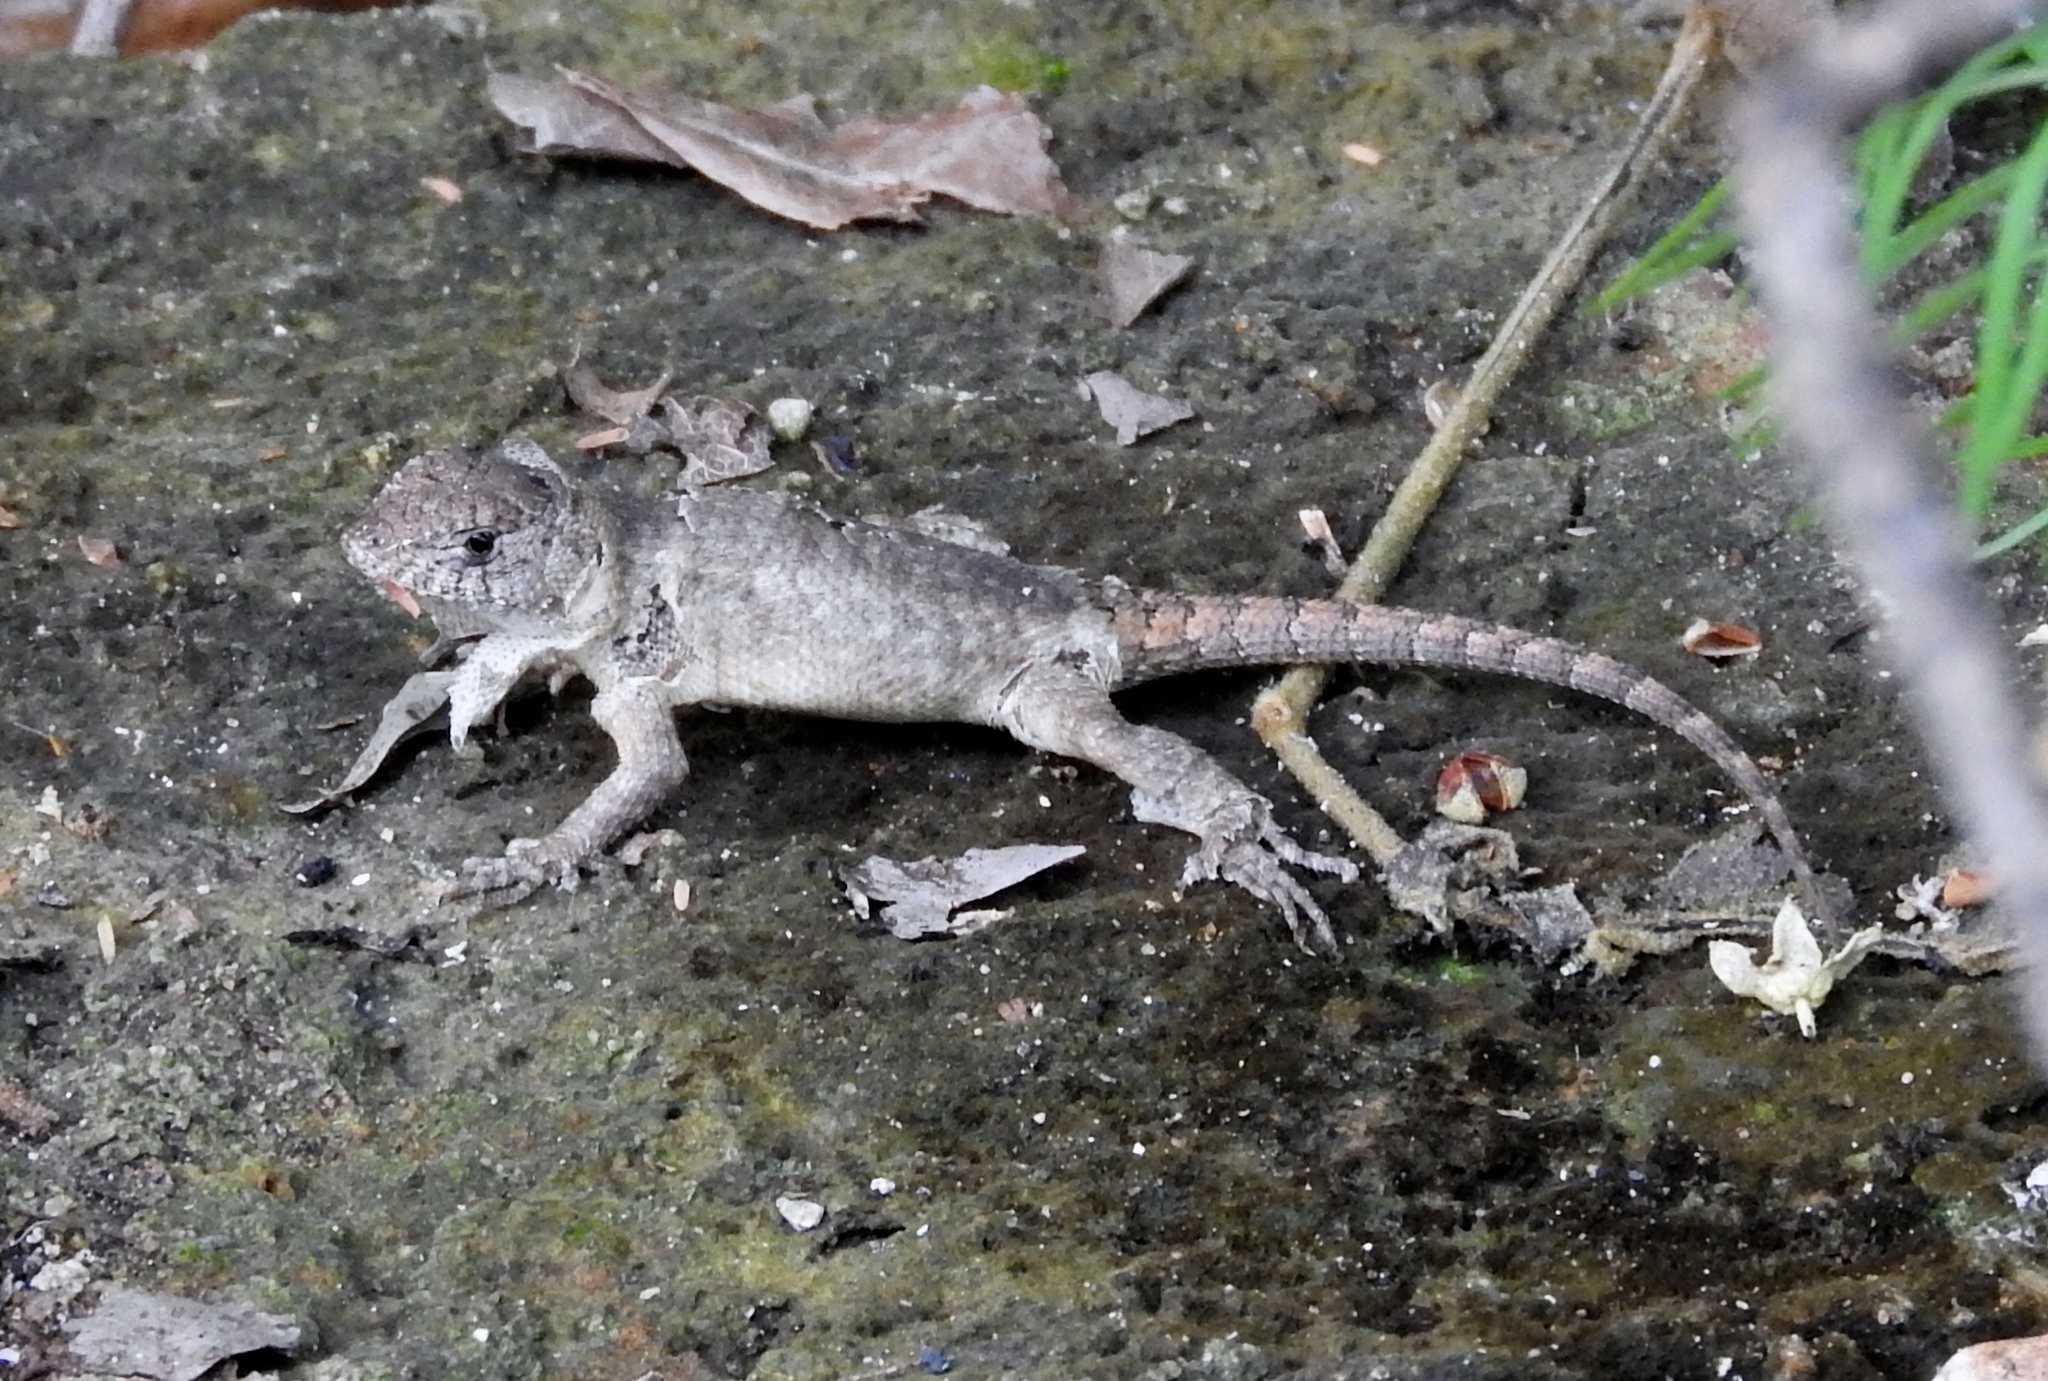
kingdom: Animalia
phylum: Chordata
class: Squamata
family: Phrynosomatidae
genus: Sceloporus
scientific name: Sceloporus nelsoni
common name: Nelson's spiny lizard
